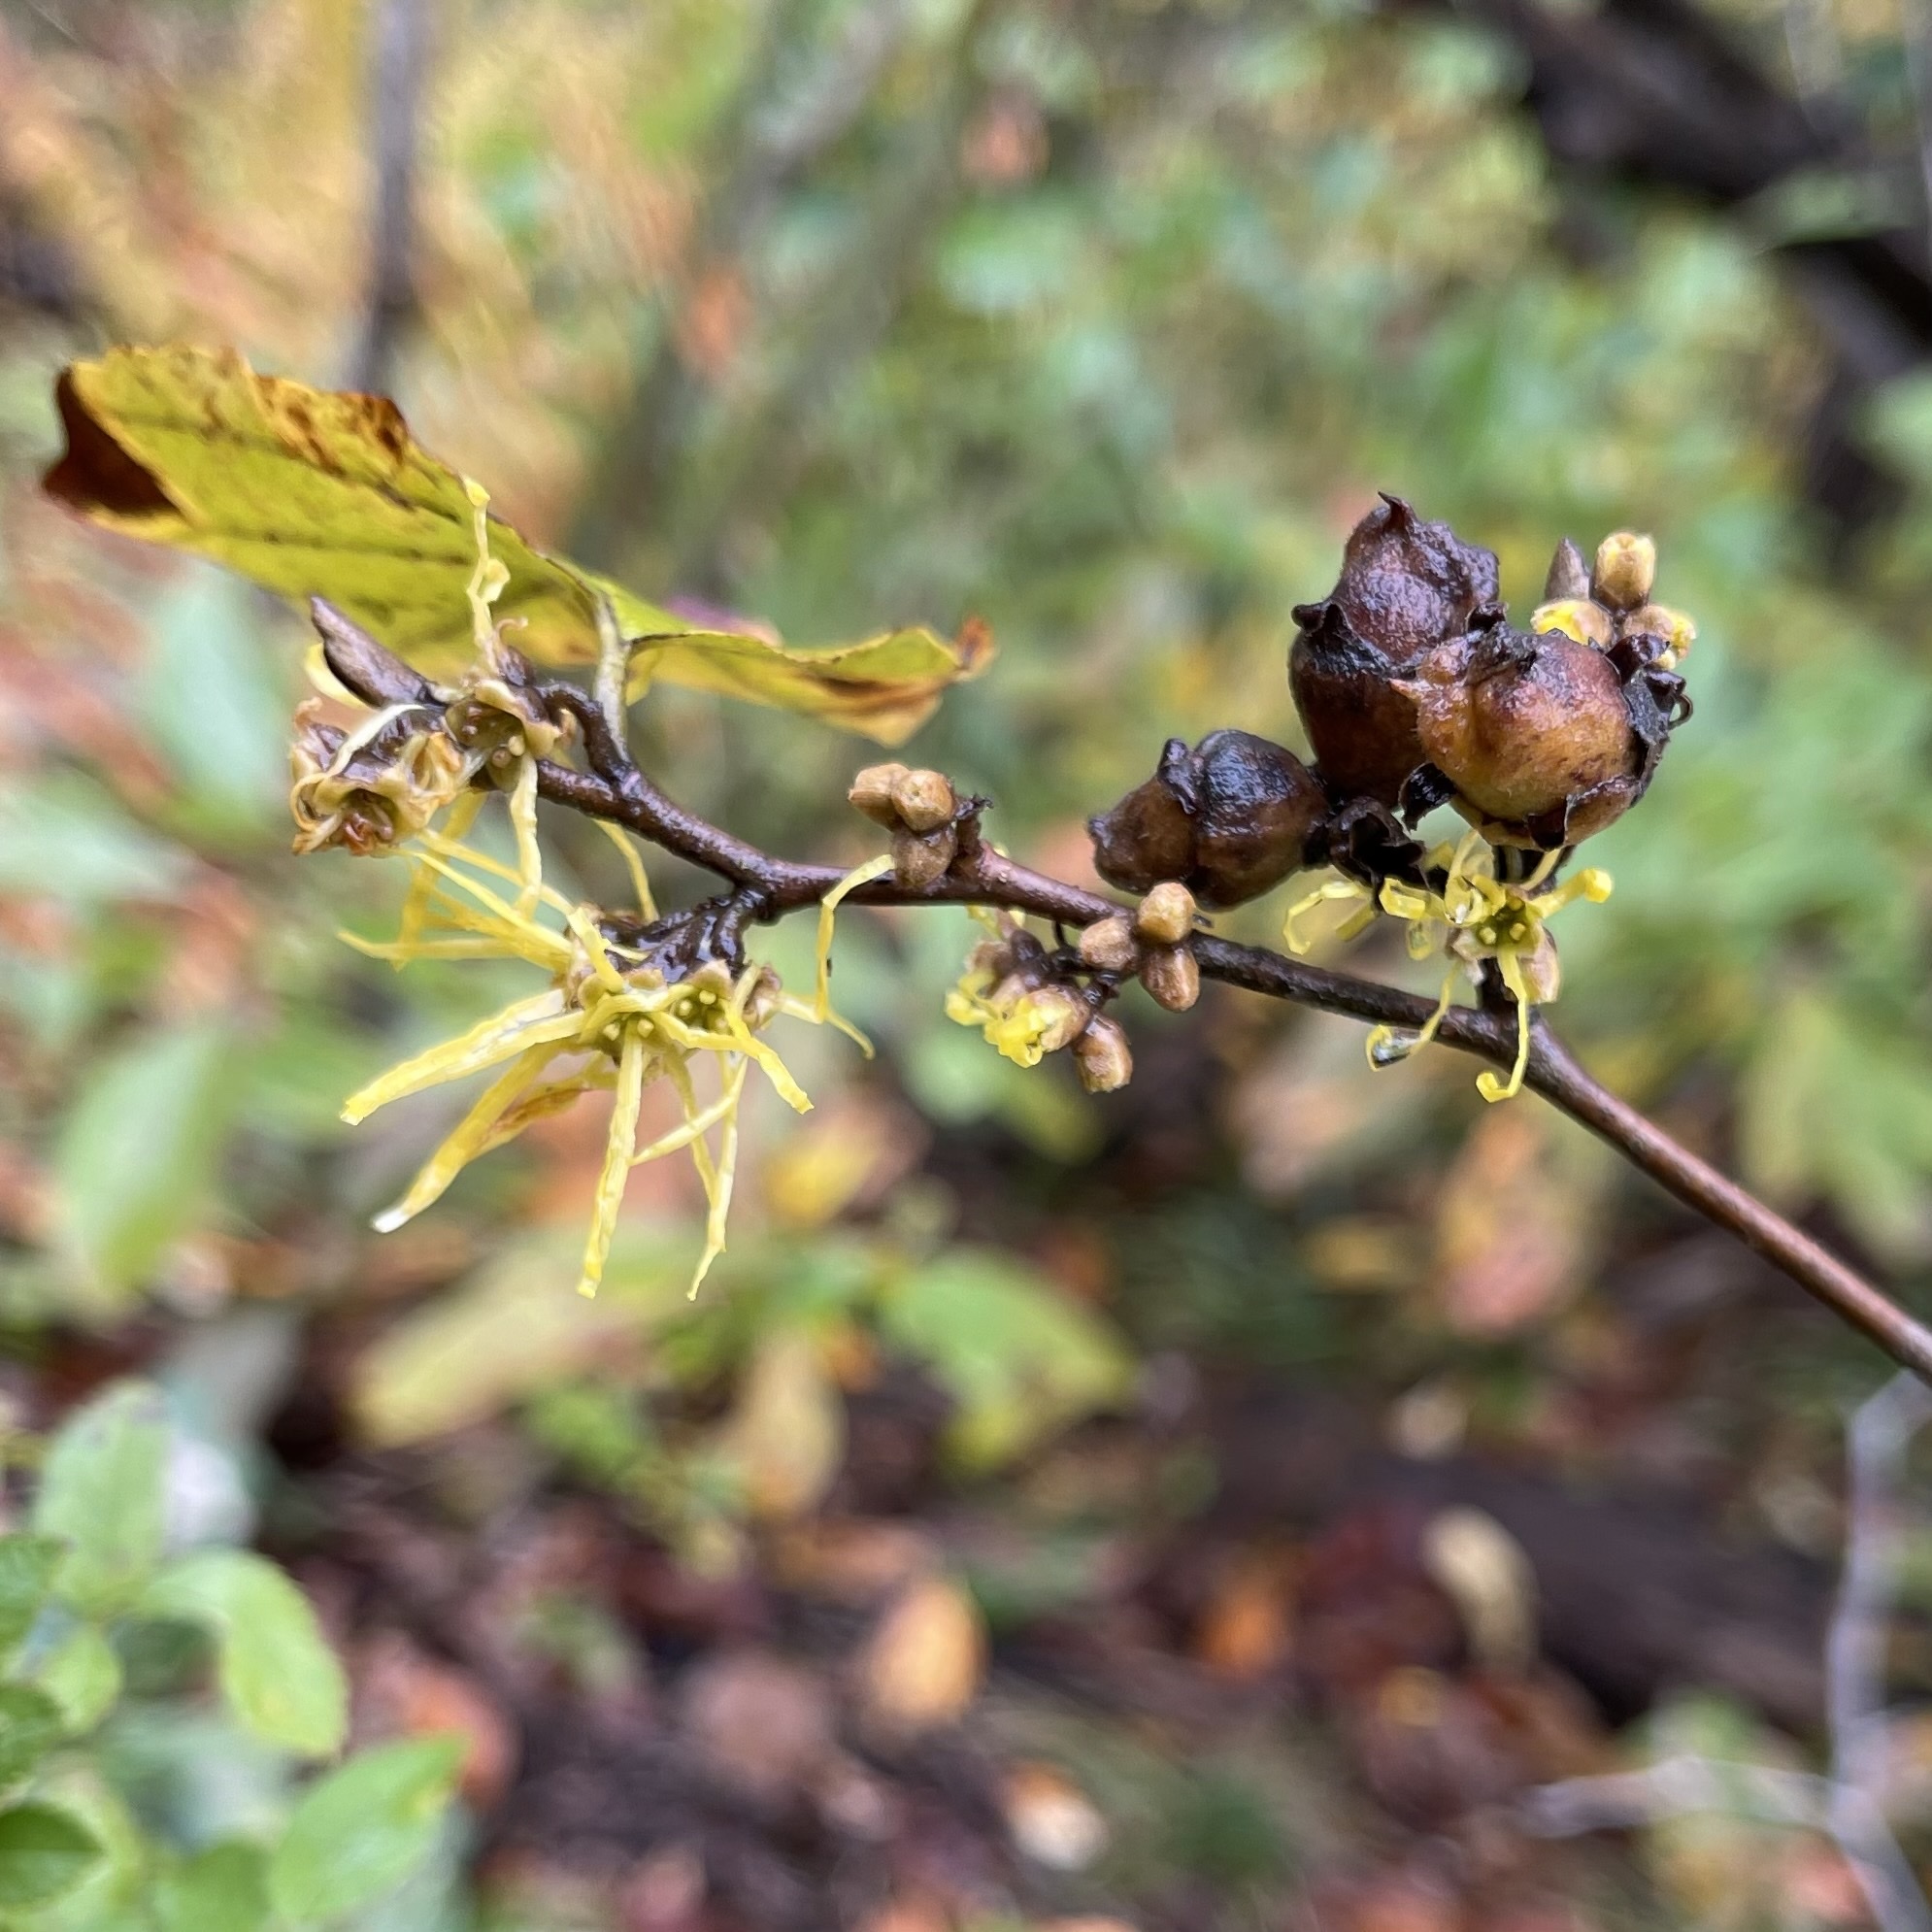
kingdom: Plantae
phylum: Tracheophyta
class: Magnoliopsida
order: Saxifragales
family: Hamamelidaceae
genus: Hamamelis
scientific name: Hamamelis virginiana
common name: Witch-hazel
